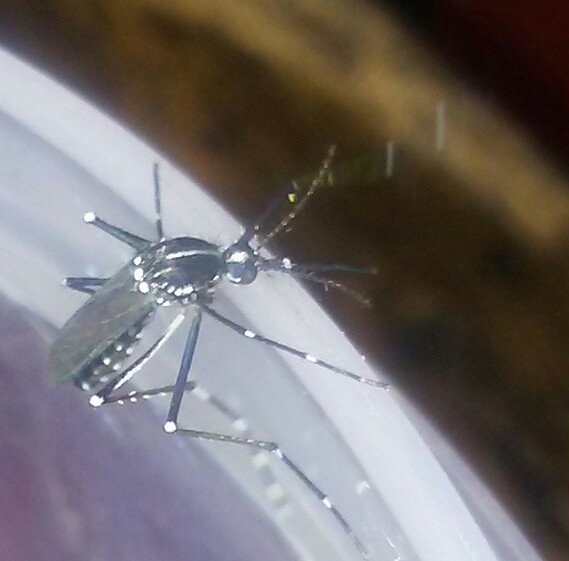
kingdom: Animalia
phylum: Arthropoda
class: Insecta
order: Diptera
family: Culicidae
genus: Aedes
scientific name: Aedes albopictus
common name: Tiger mosquito
